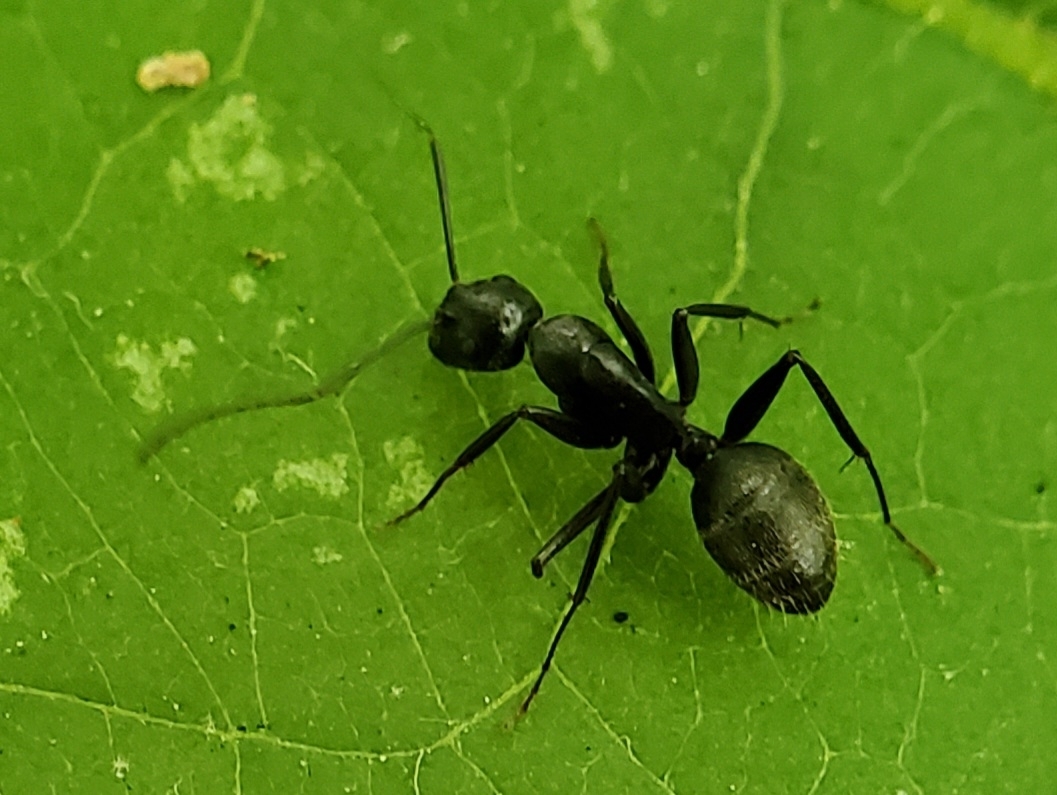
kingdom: Animalia
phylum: Arthropoda
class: Insecta
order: Hymenoptera
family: Formicidae
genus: Camponotus
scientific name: Camponotus pennsylvanicus
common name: Black carpenter ant
